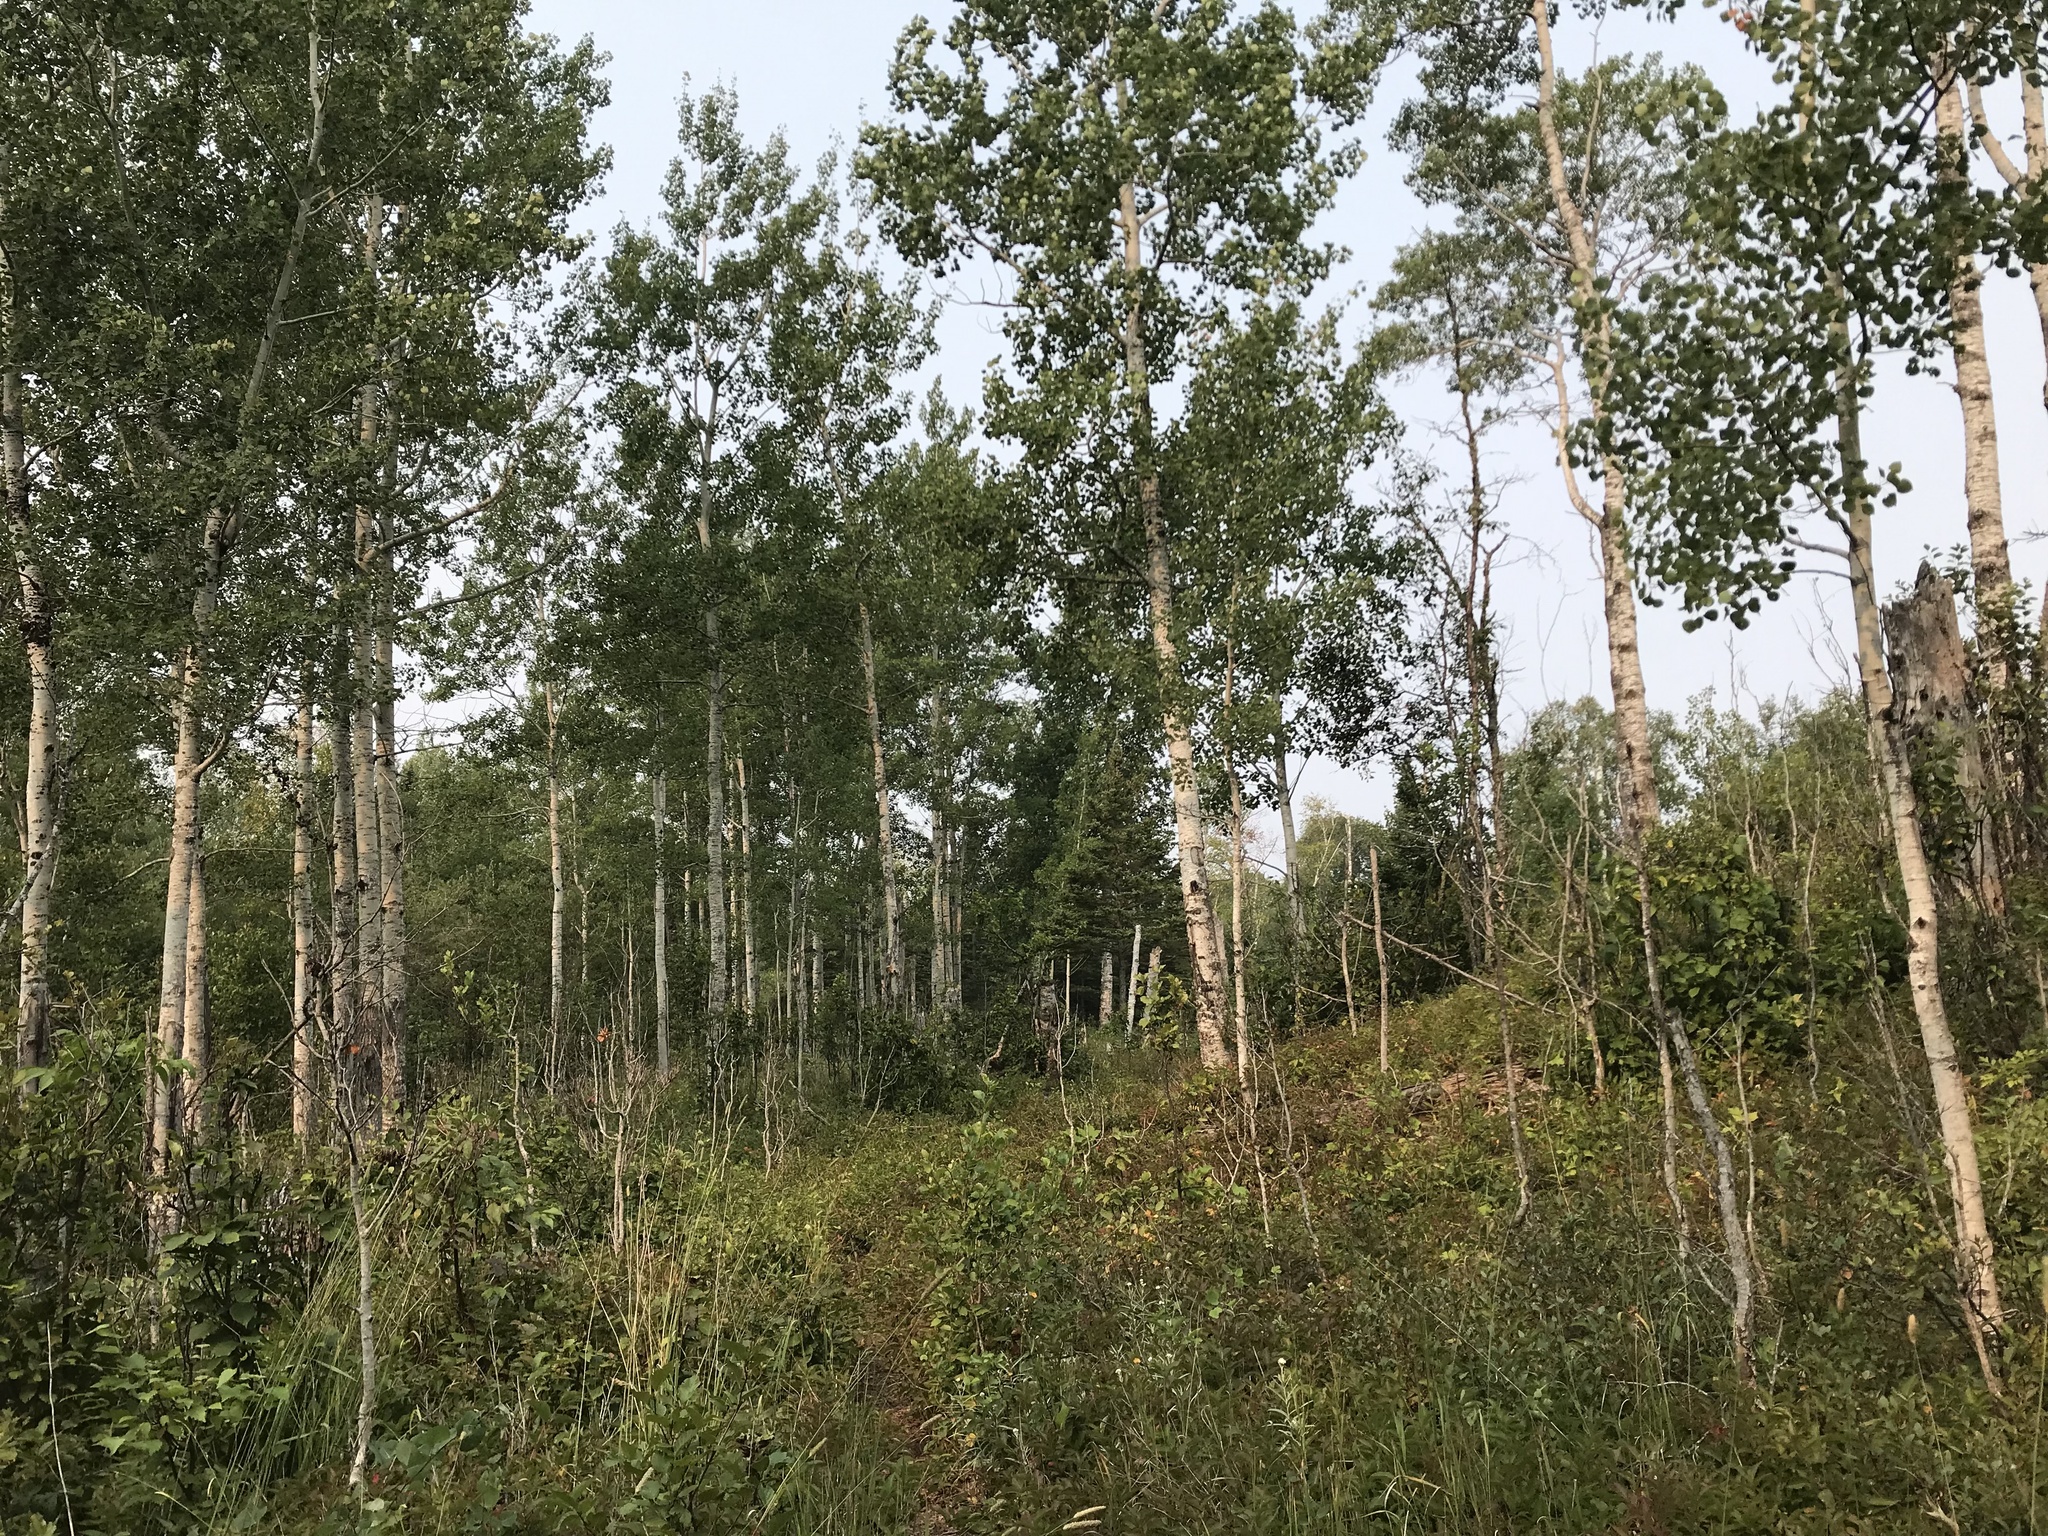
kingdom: Plantae
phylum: Tracheophyta
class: Magnoliopsida
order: Malpighiales
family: Salicaceae
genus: Populus
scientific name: Populus tremuloides
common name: Quaking aspen
